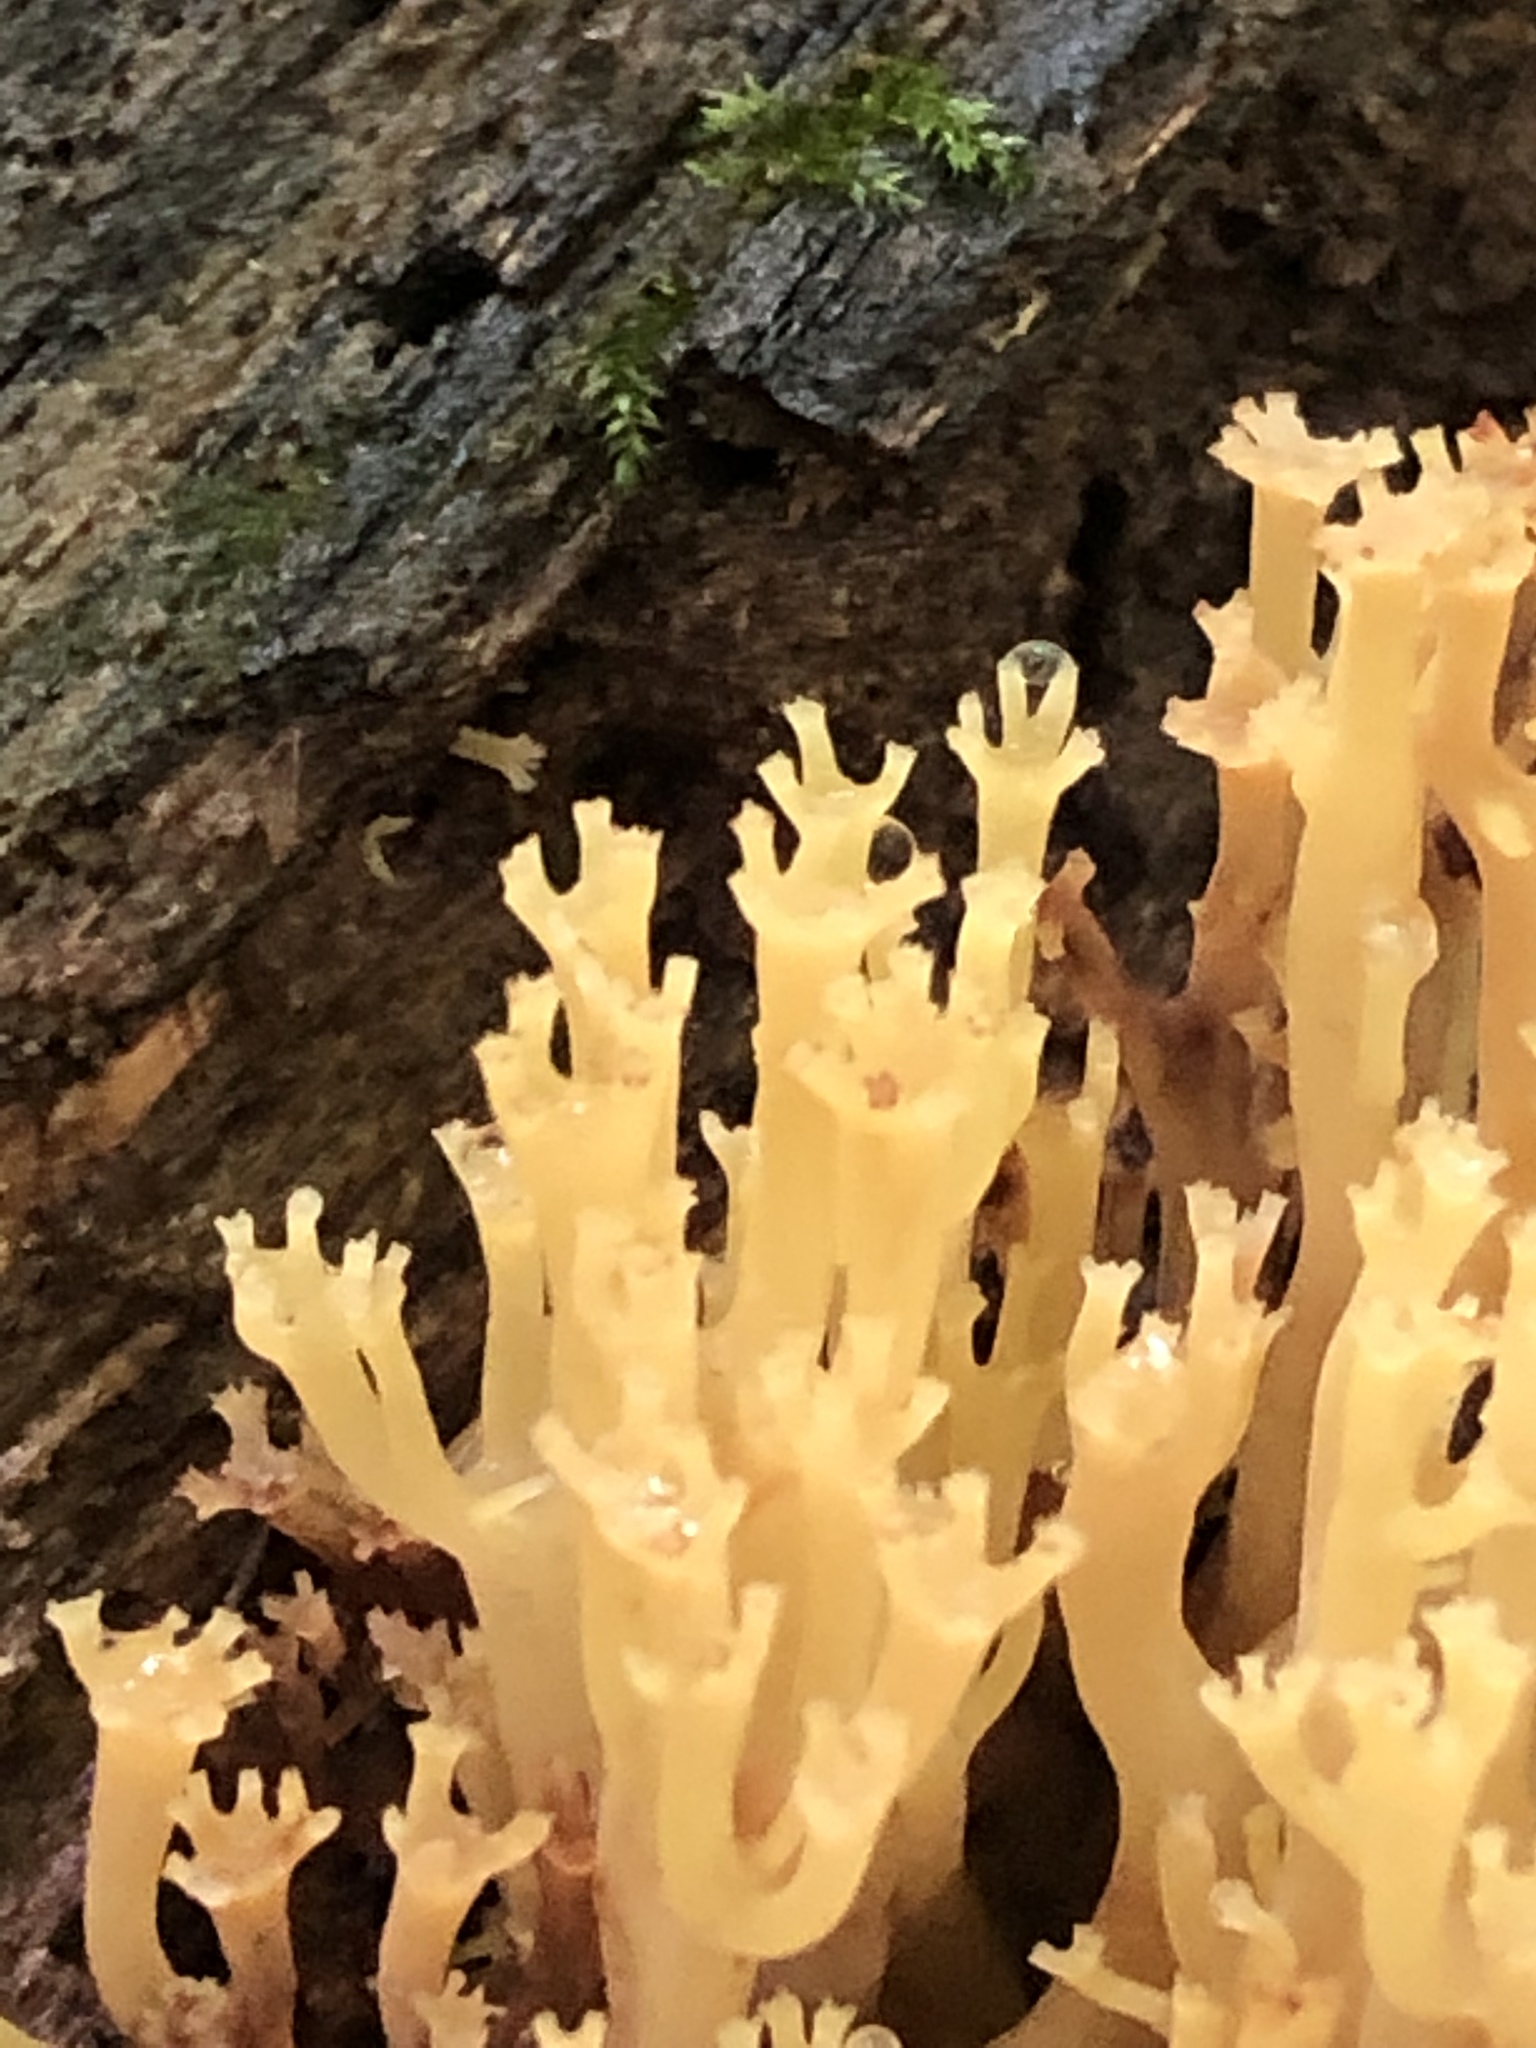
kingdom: Fungi
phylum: Basidiomycota
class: Agaricomycetes
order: Russulales
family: Auriscalpiaceae
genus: Artomyces
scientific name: Artomyces pyxidatus
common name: Crown-tipped coral fungus
